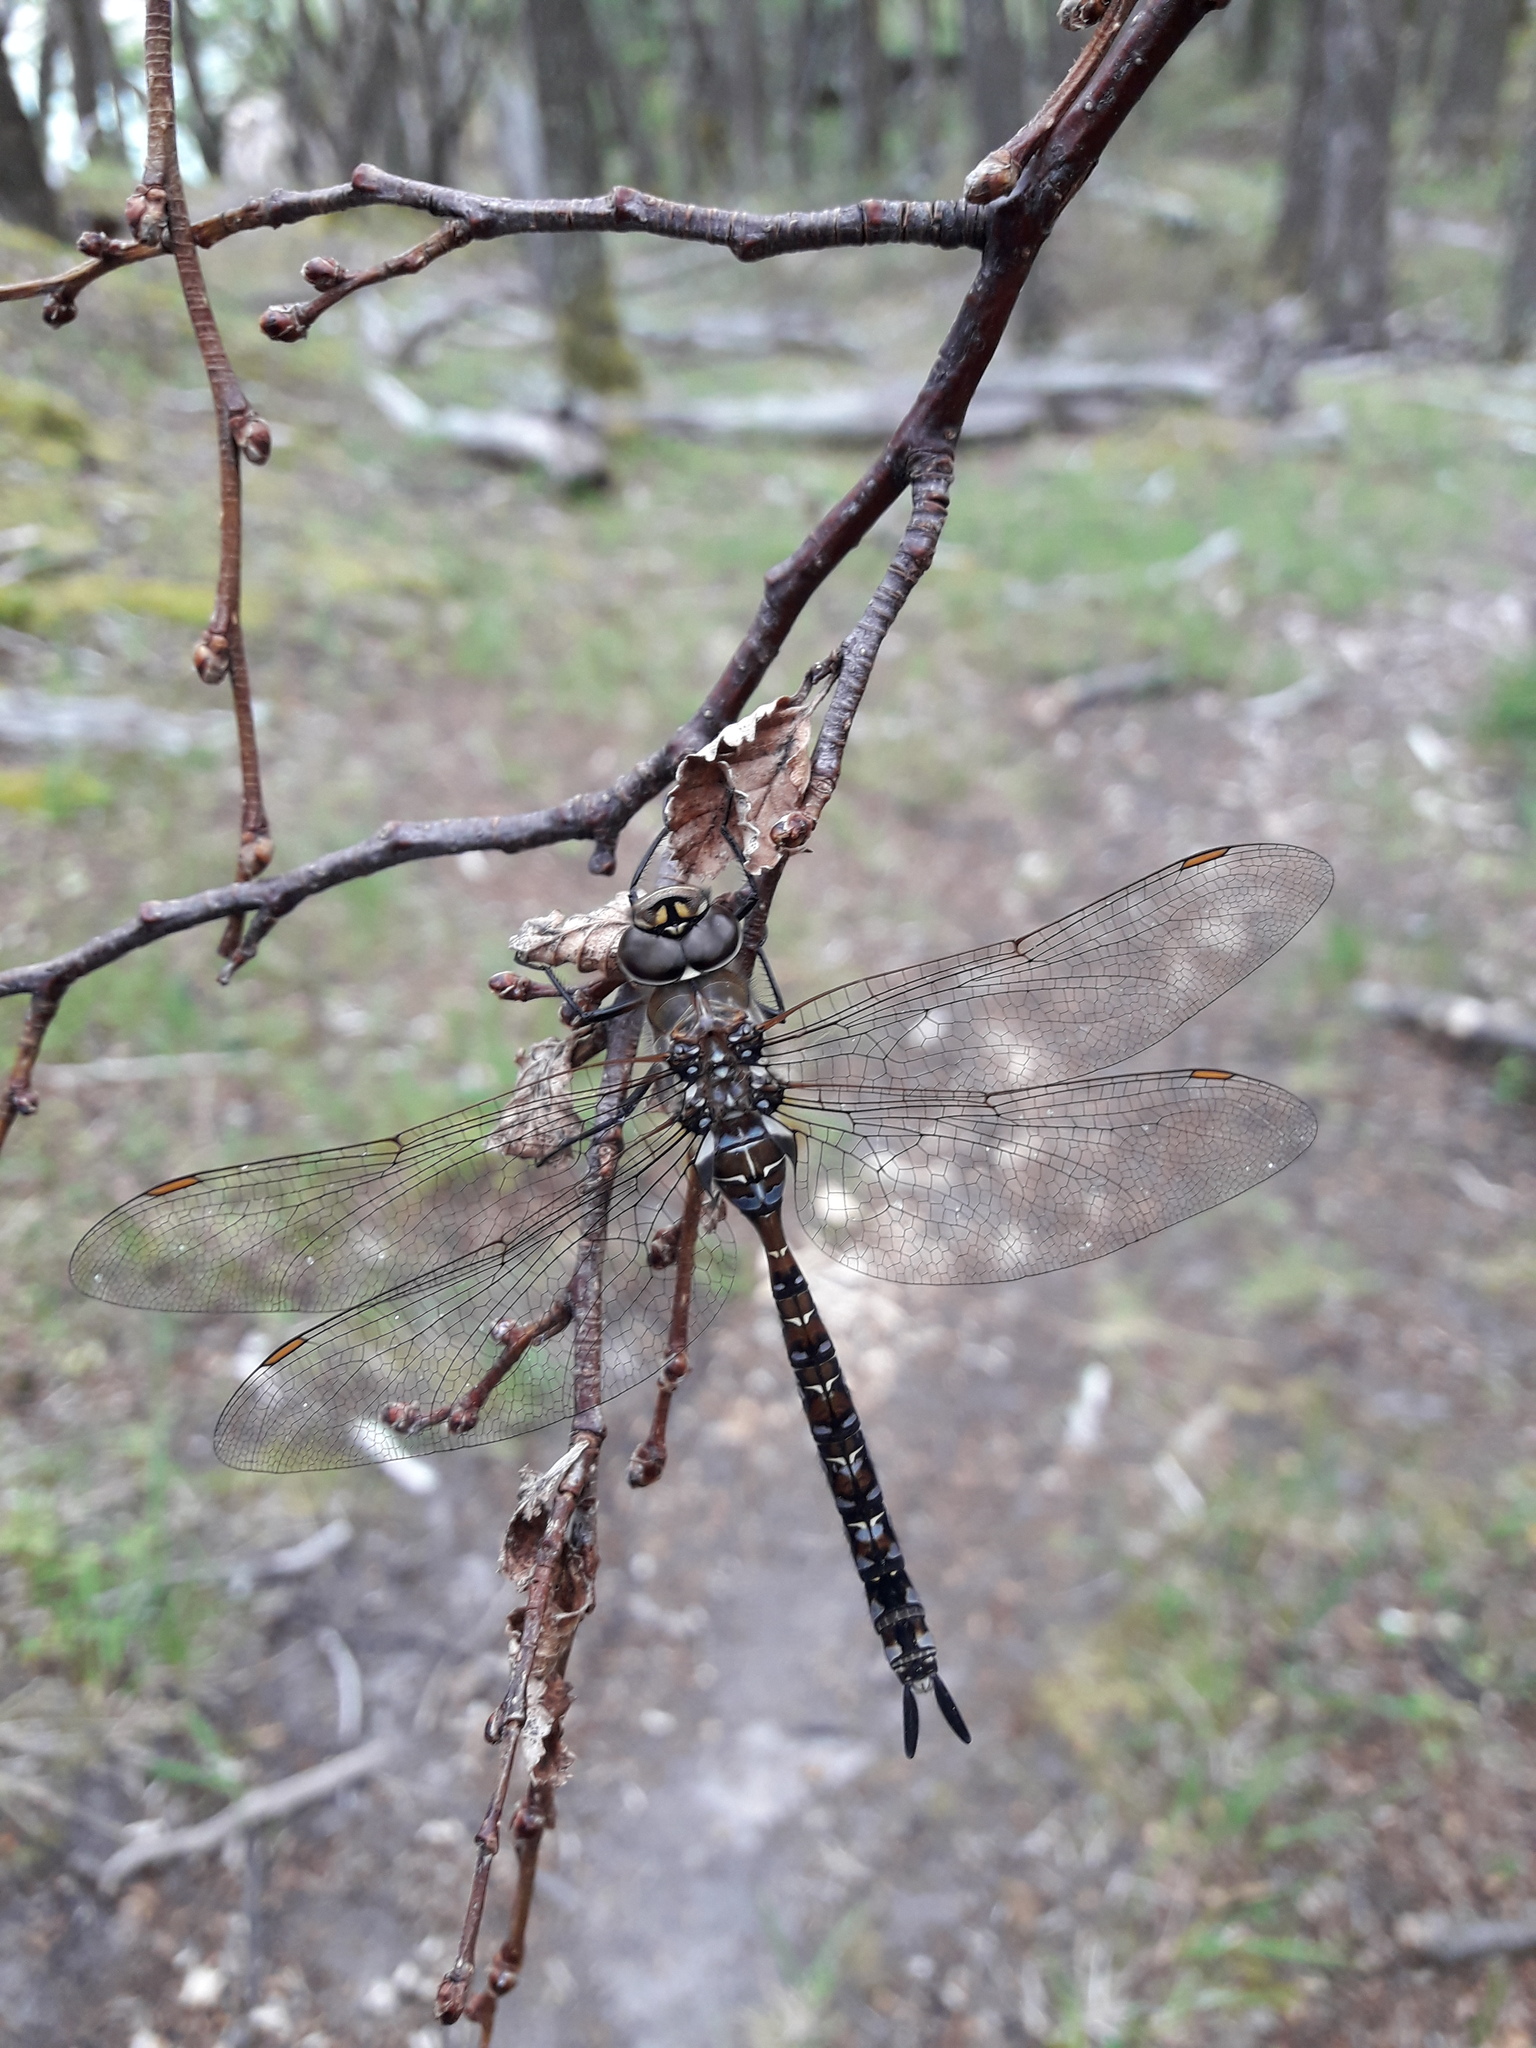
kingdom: Animalia
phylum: Arthropoda
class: Insecta
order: Odonata
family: Aeshnidae
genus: Rhionaeschna
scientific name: Rhionaeschna variegata
